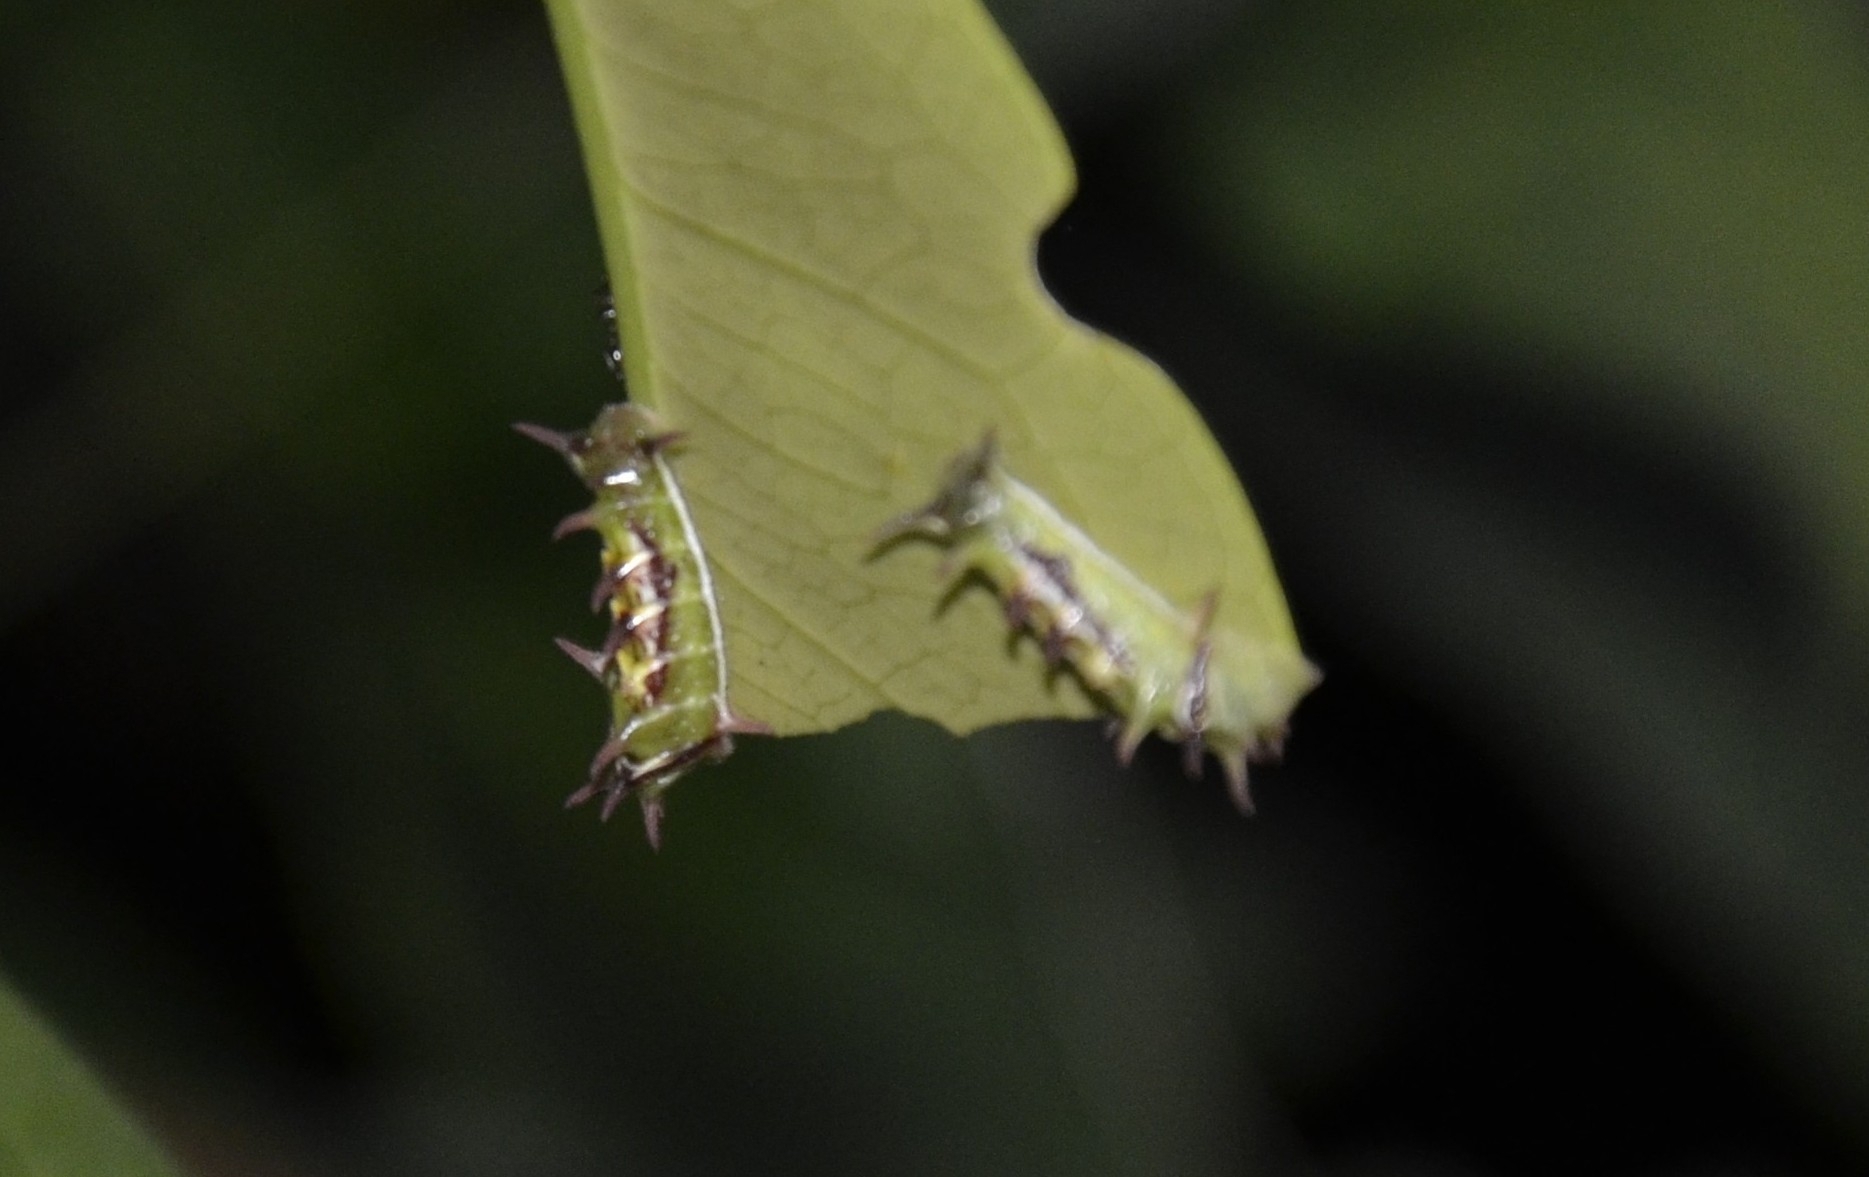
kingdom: Animalia
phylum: Arthropoda
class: Insecta
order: Lepidoptera
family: Lycaenidae
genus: Rathinda
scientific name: Rathinda amor
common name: Monkey puzzle
